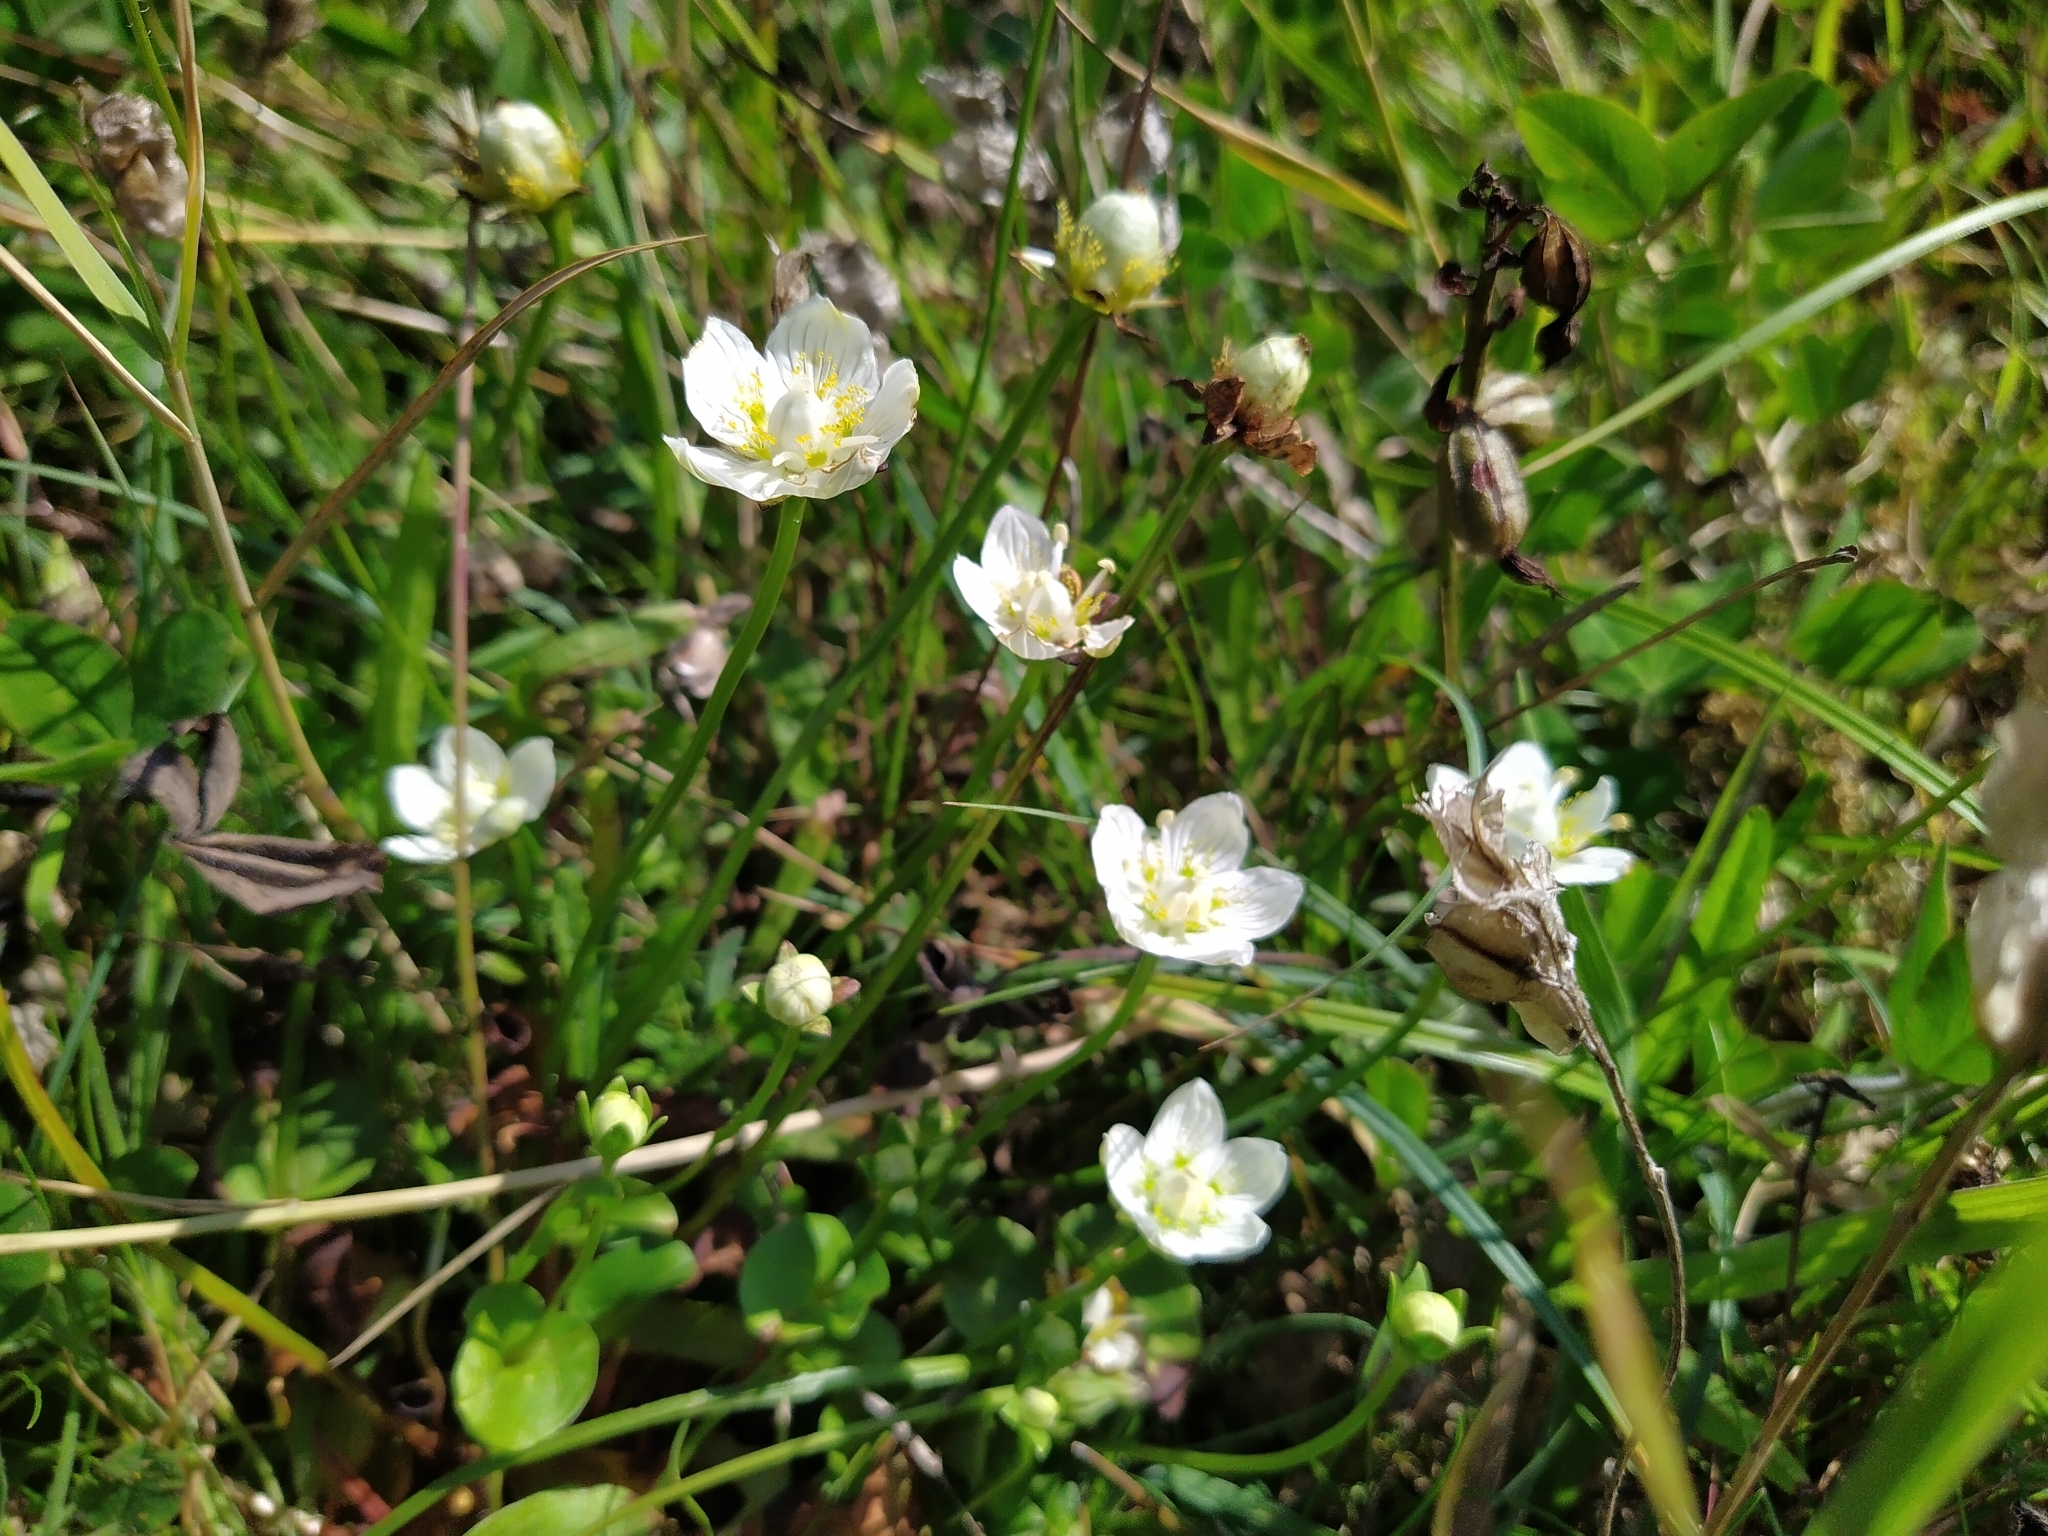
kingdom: Plantae
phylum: Tracheophyta
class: Magnoliopsida
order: Celastrales
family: Parnassiaceae
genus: Parnassia
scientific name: Parnassia palustris
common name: Grass-of-parnassus
